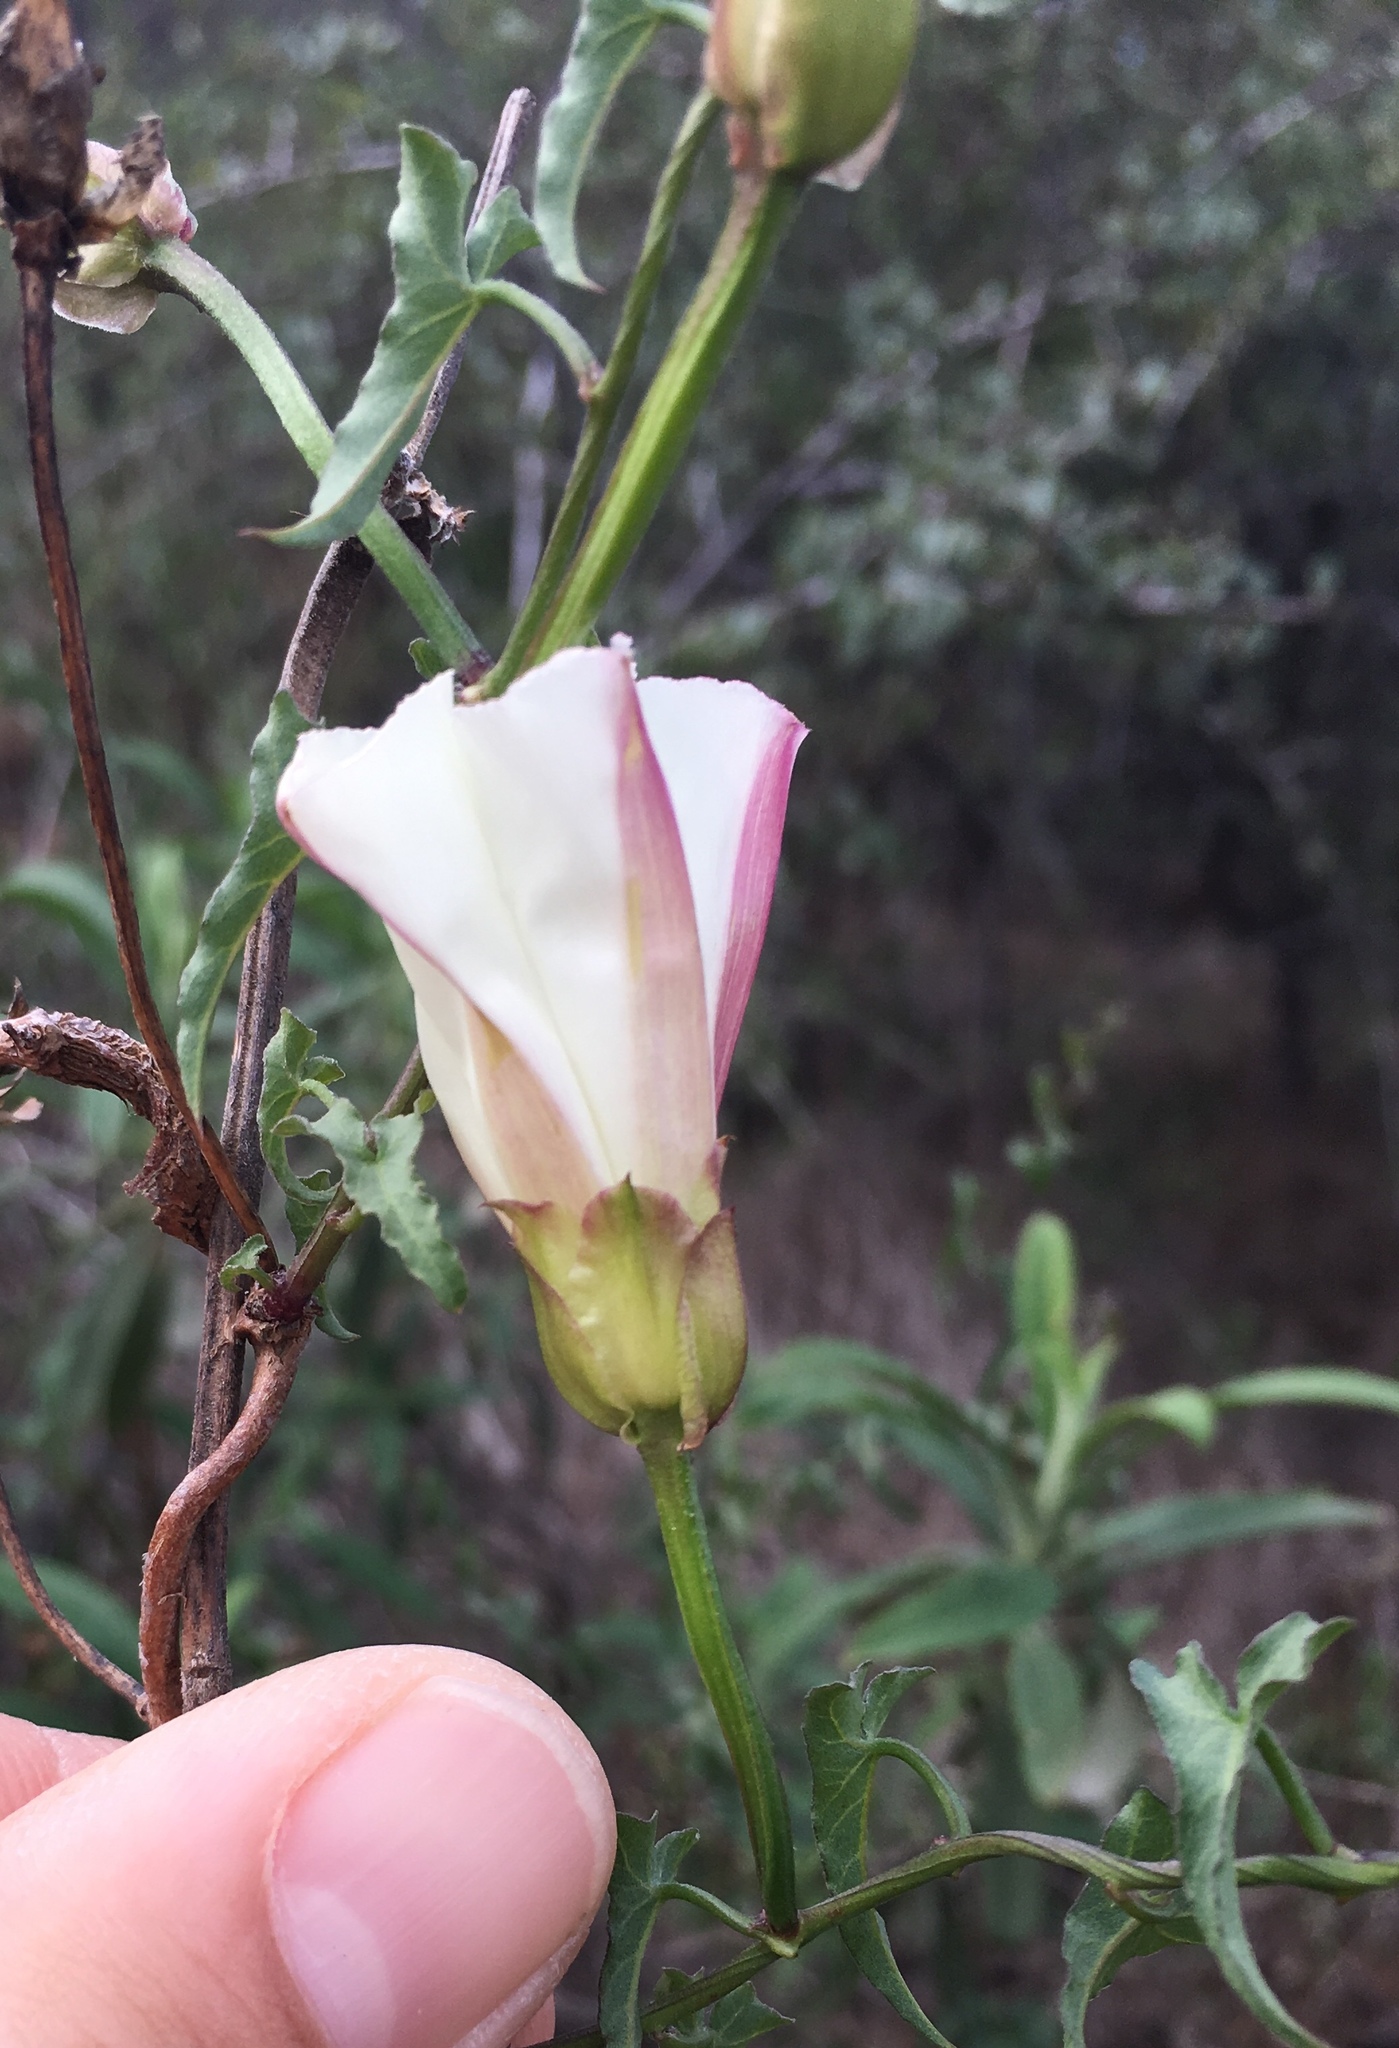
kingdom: Plantae
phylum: Tracheophyta
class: Magnoliopsida
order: Solanales
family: Convolvulaceae
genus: Calystegia
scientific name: Calystegia macrostegia
